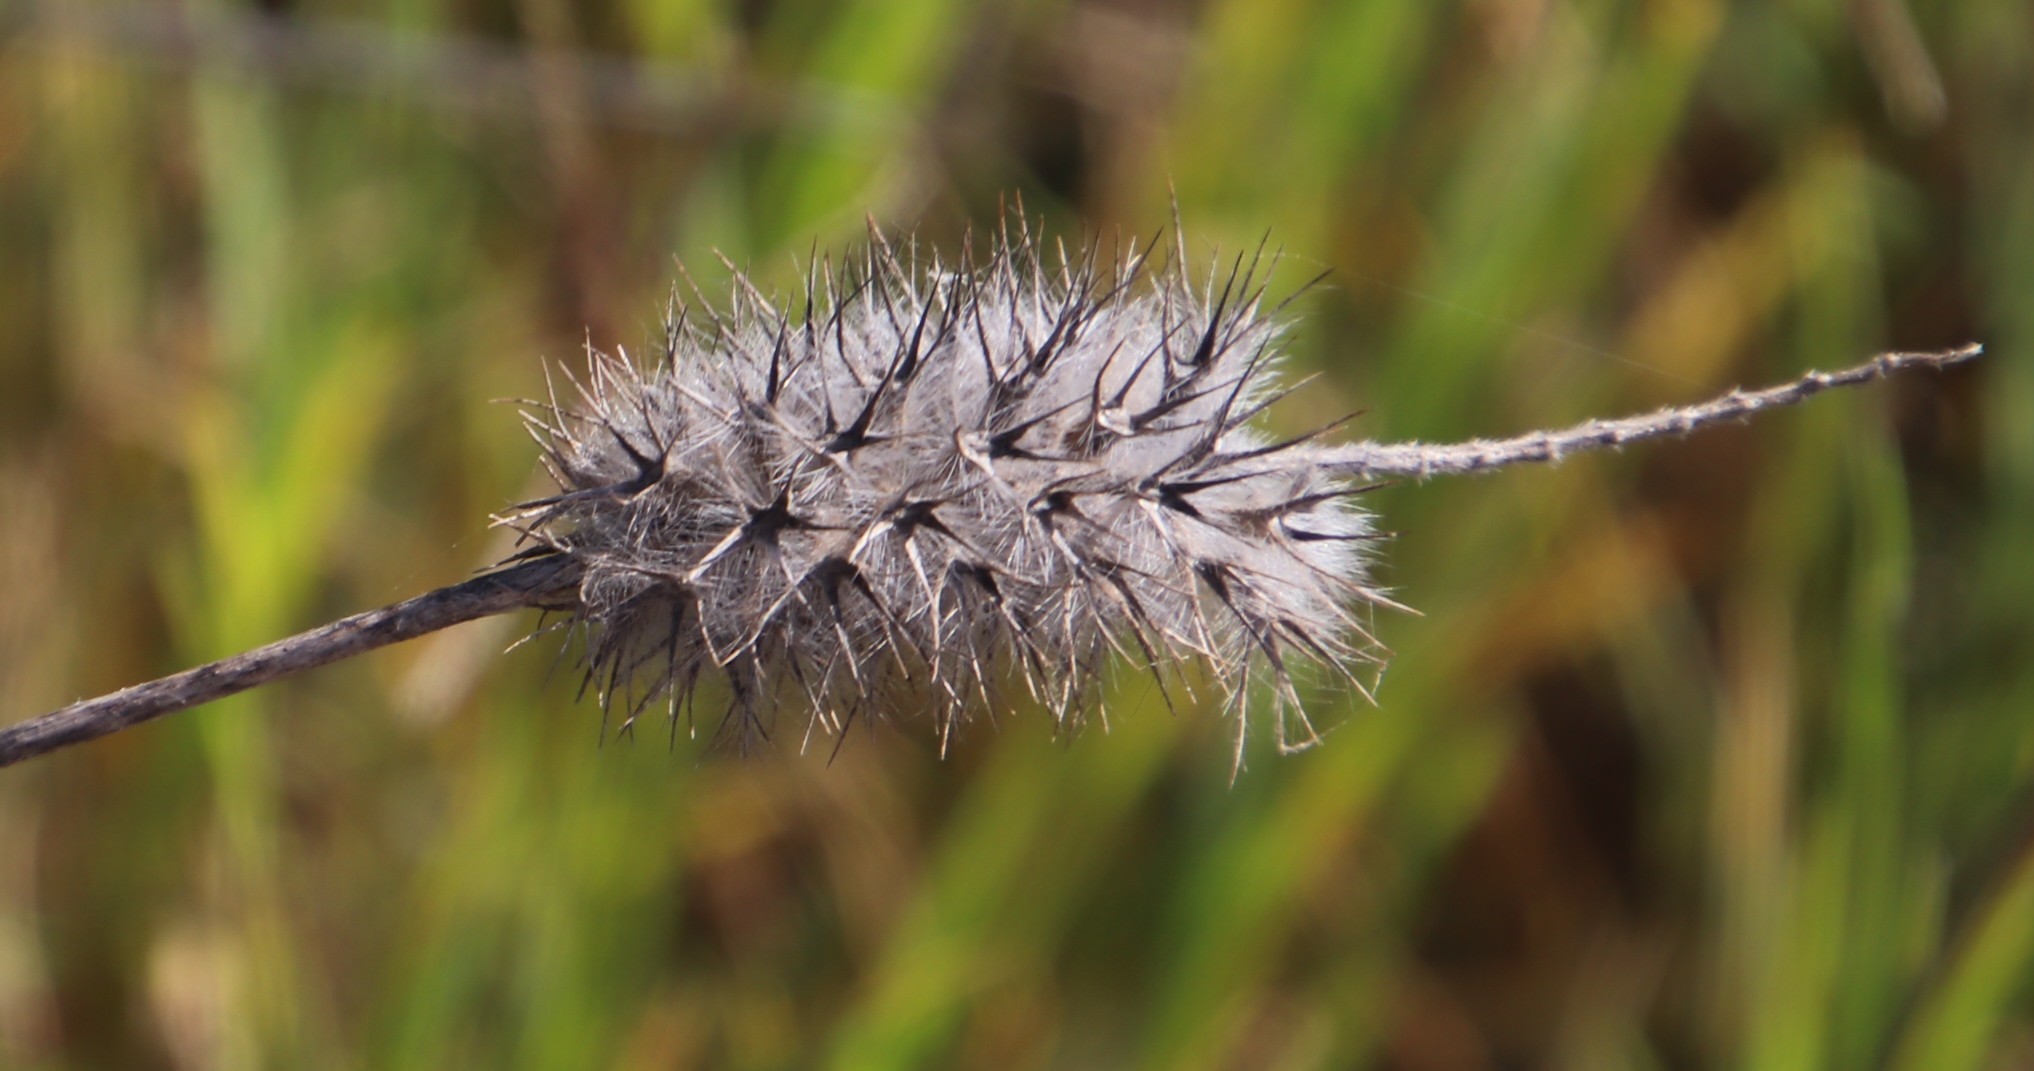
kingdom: Plantae
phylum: Tracheophyta
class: Magnoliopsida
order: Fabales
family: Fabaceae
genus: Trifolium
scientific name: Trifolium angustifolium
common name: Narrow clover
